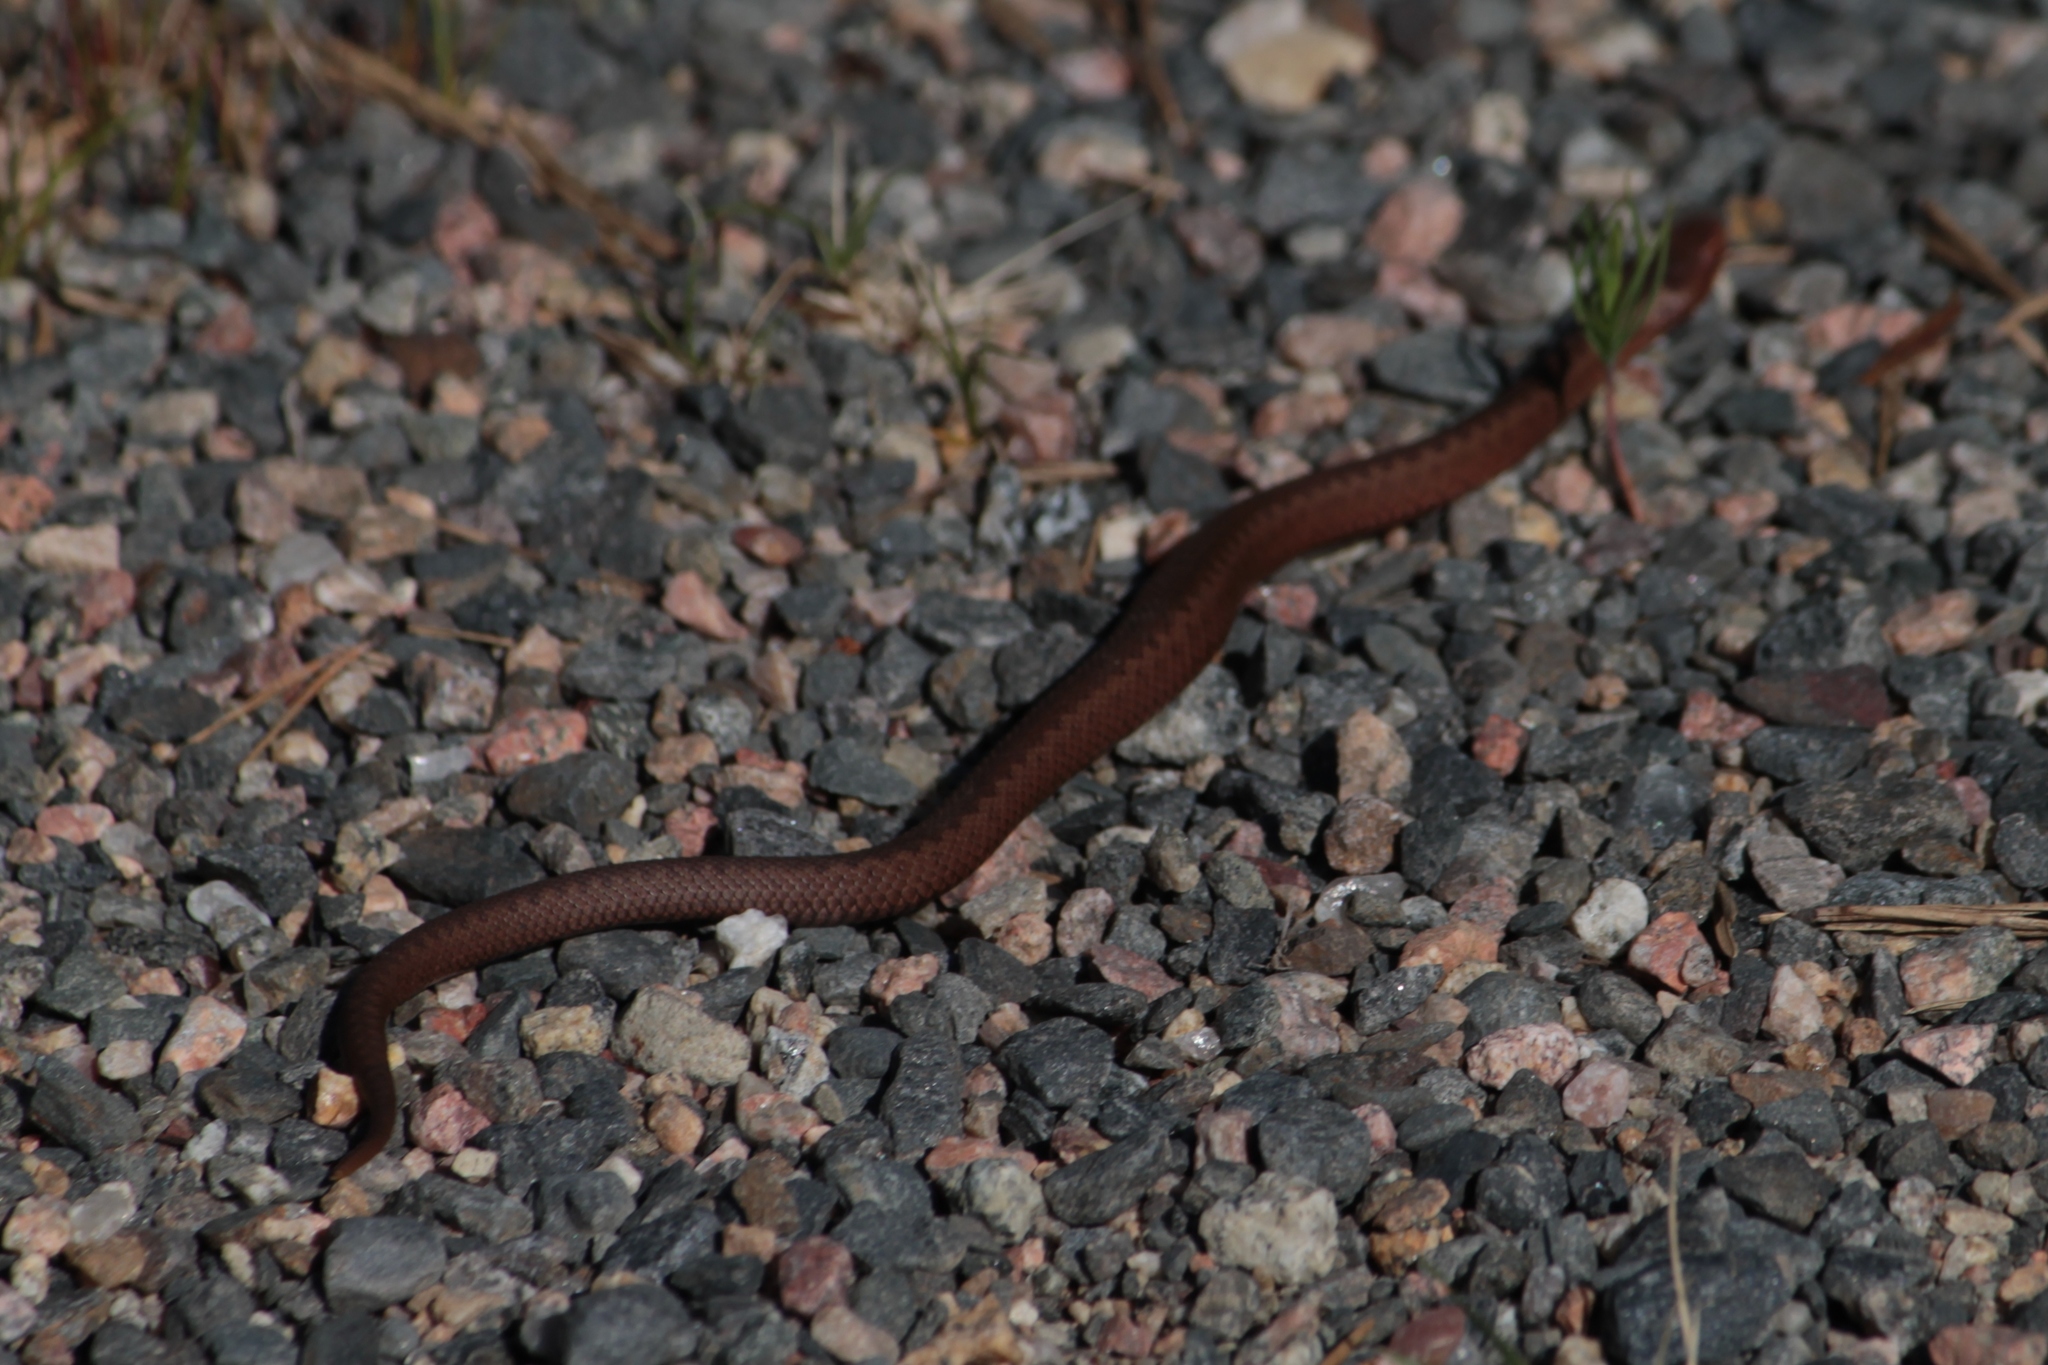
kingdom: Animalia
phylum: Chordata
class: Squamata
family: Viperidae
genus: Vipera
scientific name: Vipera berus
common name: Adder
